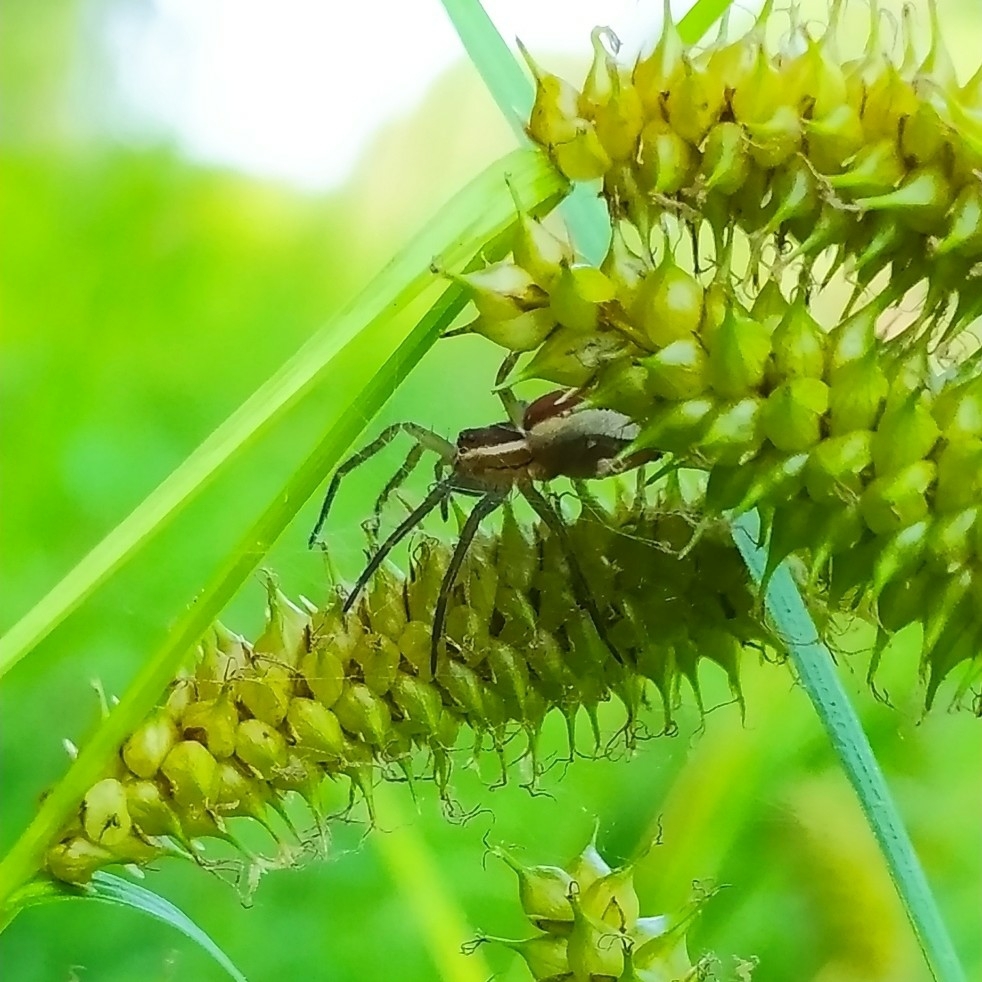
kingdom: Animalia
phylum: Arthropoda
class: Arachnida
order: Araneae
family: Pisauridae
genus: Dolomedes
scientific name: Dolomedes fimbriatus
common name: Raft spider
